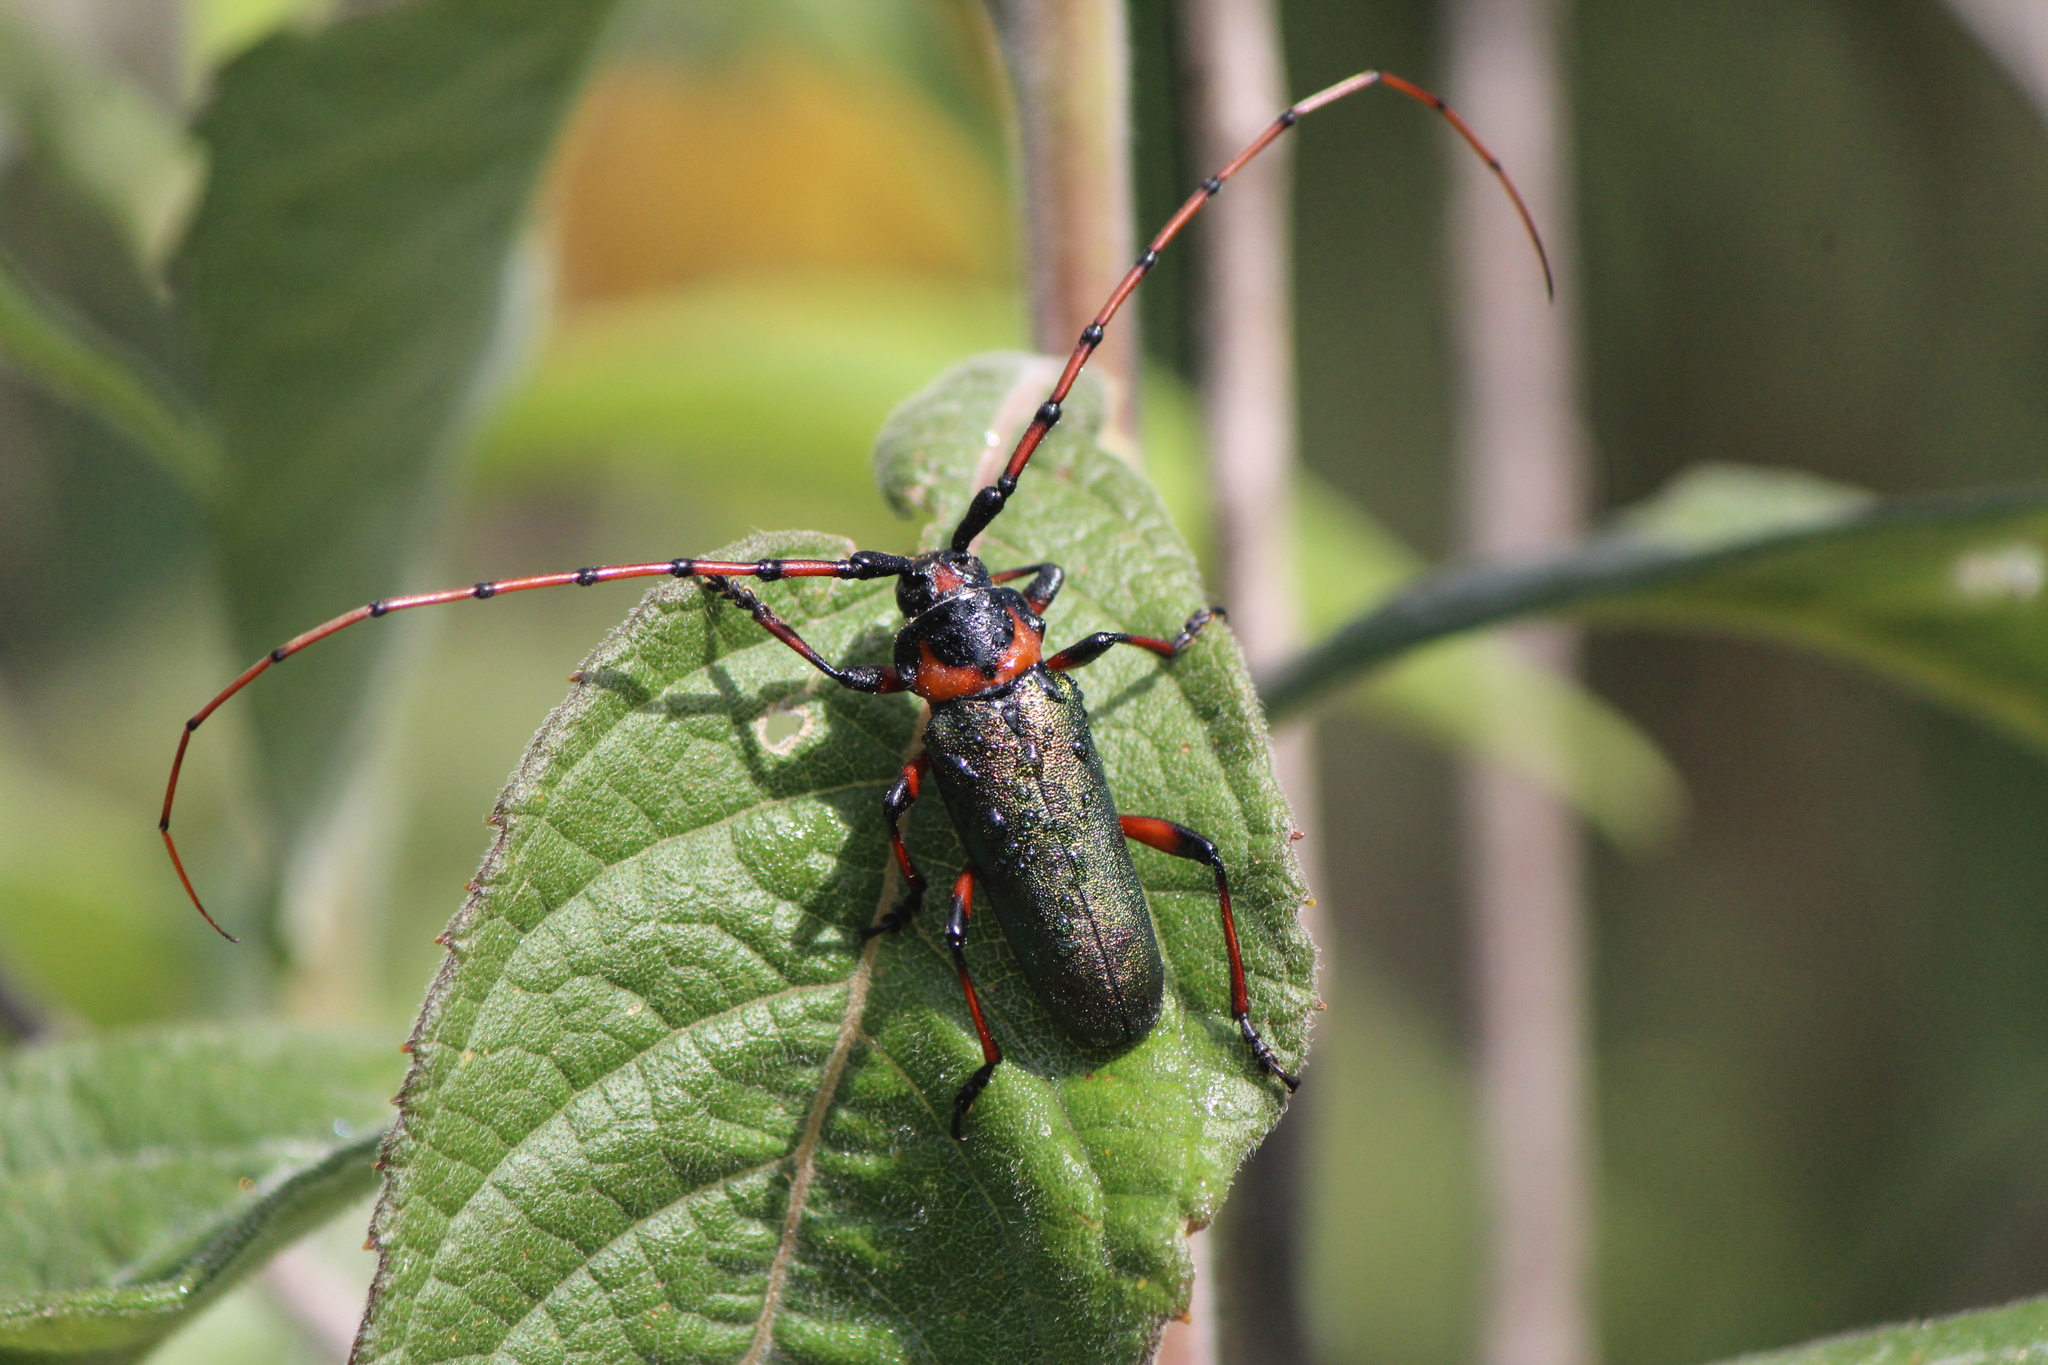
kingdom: Animalia
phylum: Arthropoda
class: Insecta
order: Coleoptera
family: Cerambycidae
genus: Stenaspis
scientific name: Stenaspis verticalis
